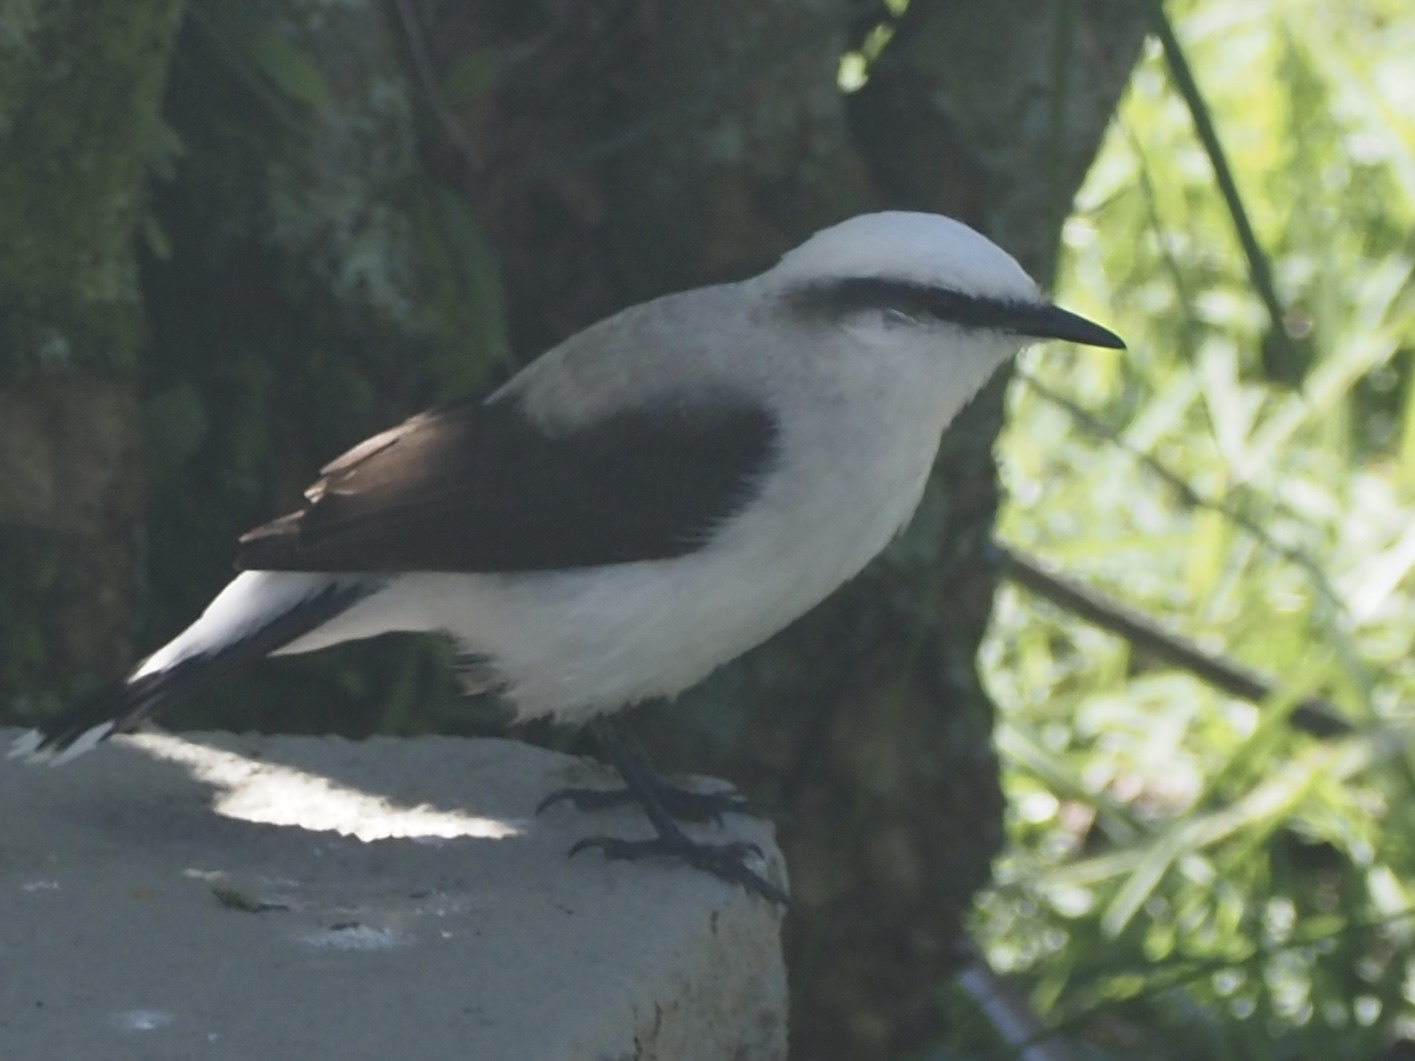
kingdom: Animalia
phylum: Chordata
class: Aves
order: Passeriformes
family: Tyrannidae
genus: Fluvicola
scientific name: Fluvicola nengeta
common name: Masked water tyrant
